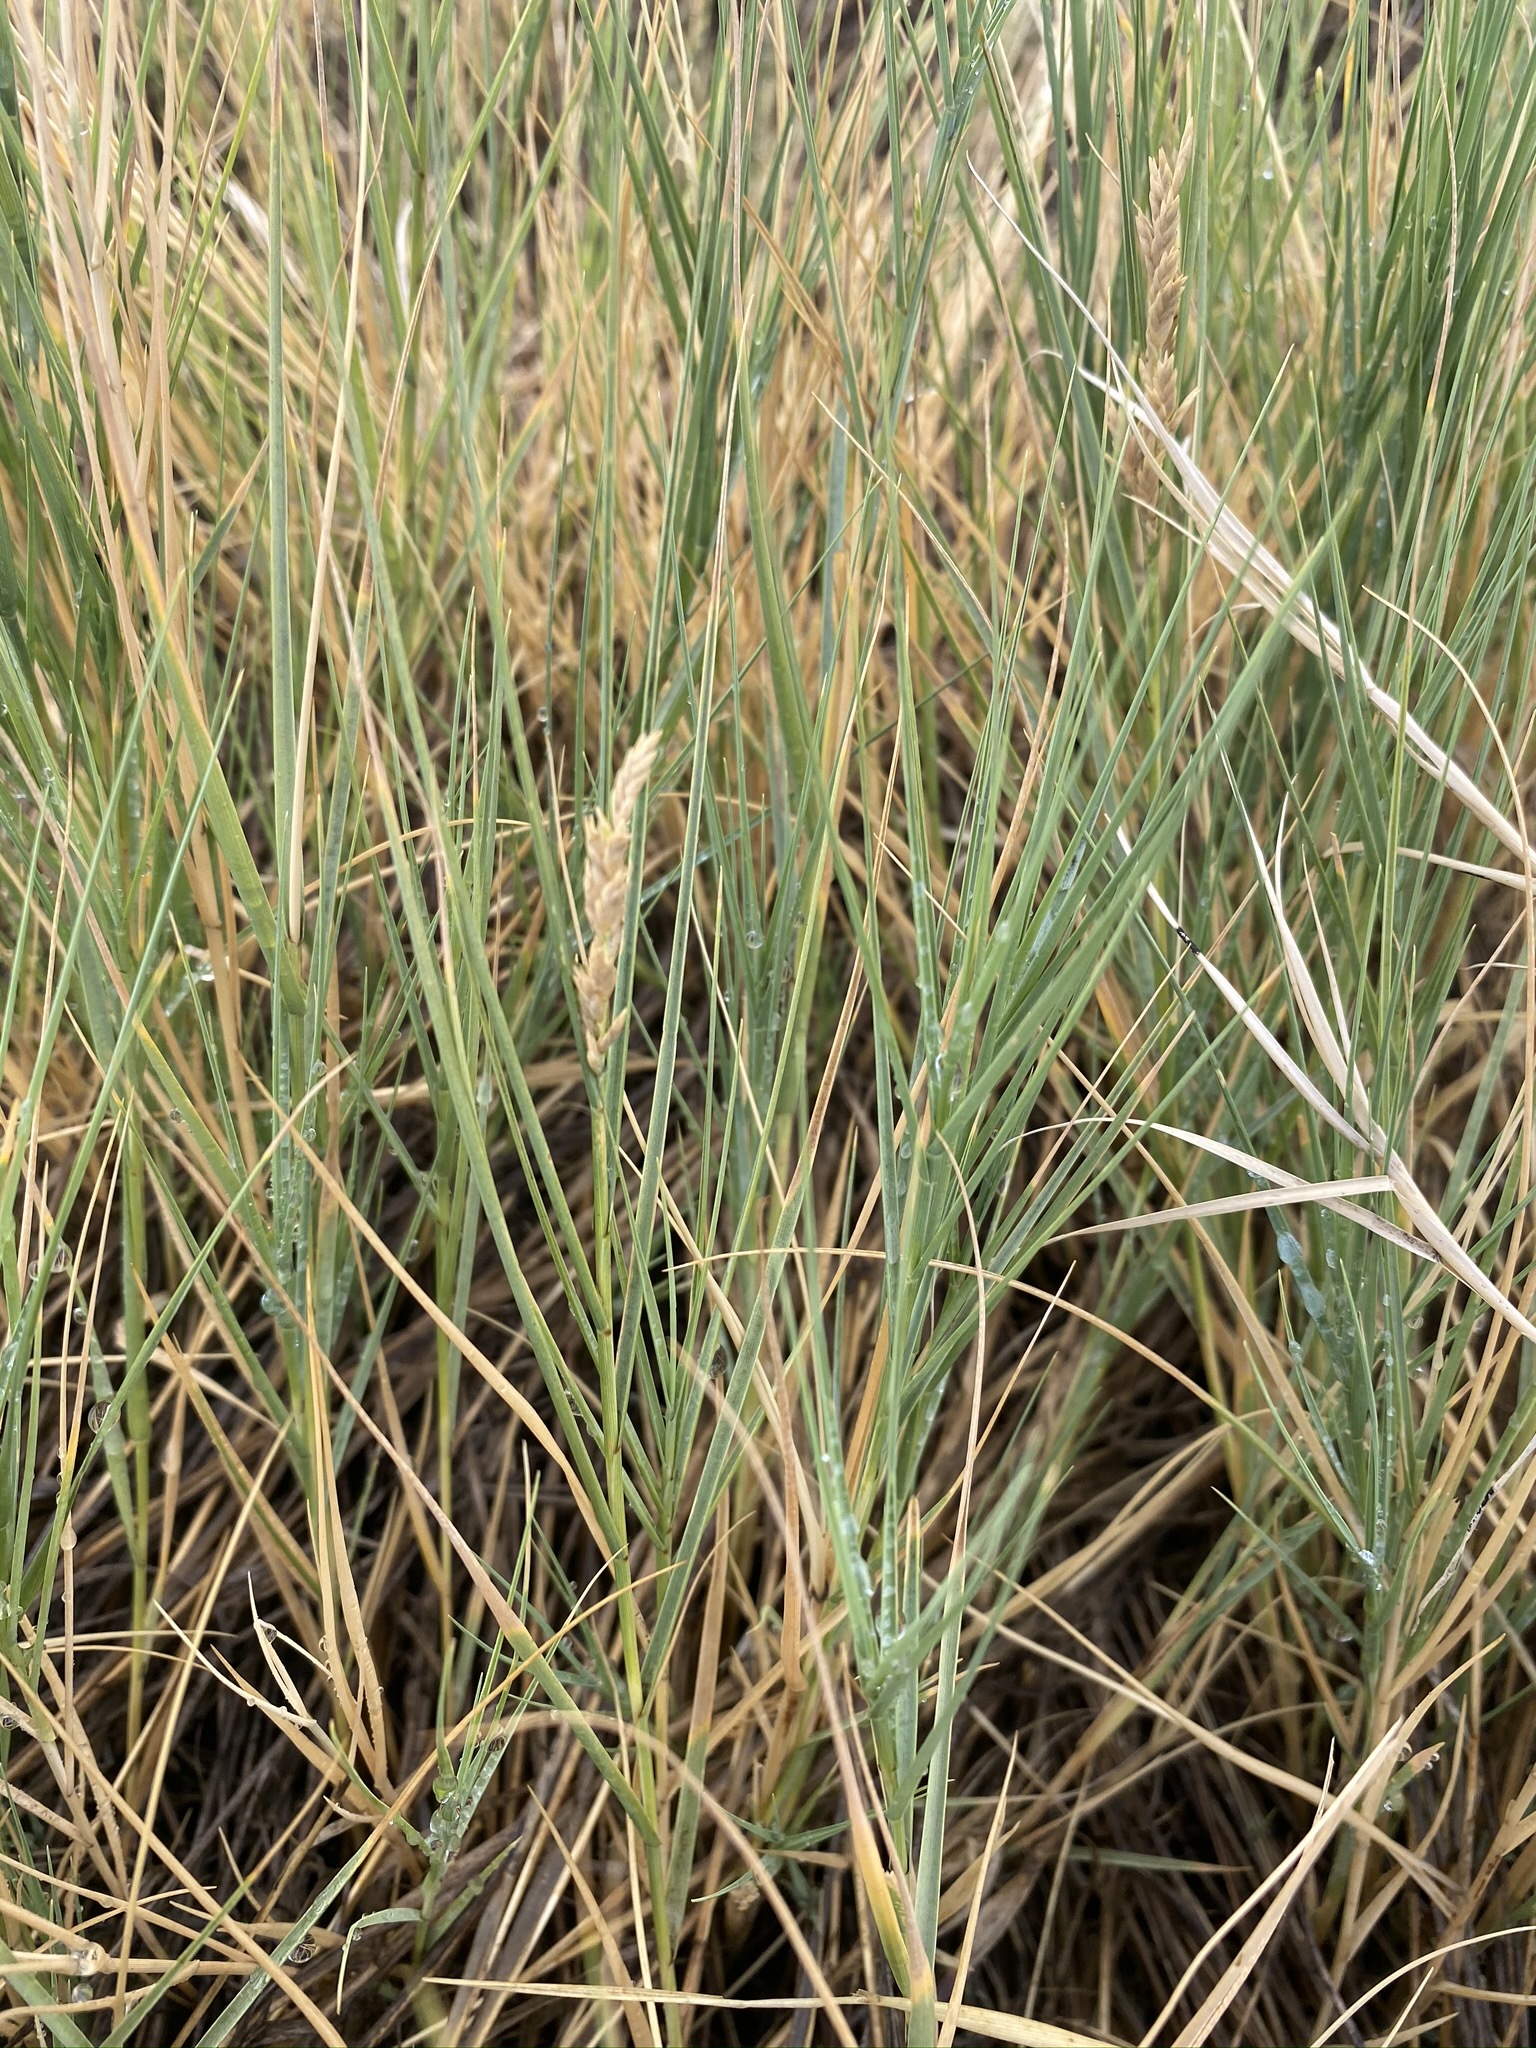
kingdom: Plantae
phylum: Tracheophyta
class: Liliopsida
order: Poales
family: Poaceae
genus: Distichlis
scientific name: Distichlis spicata
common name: Saltgrass
